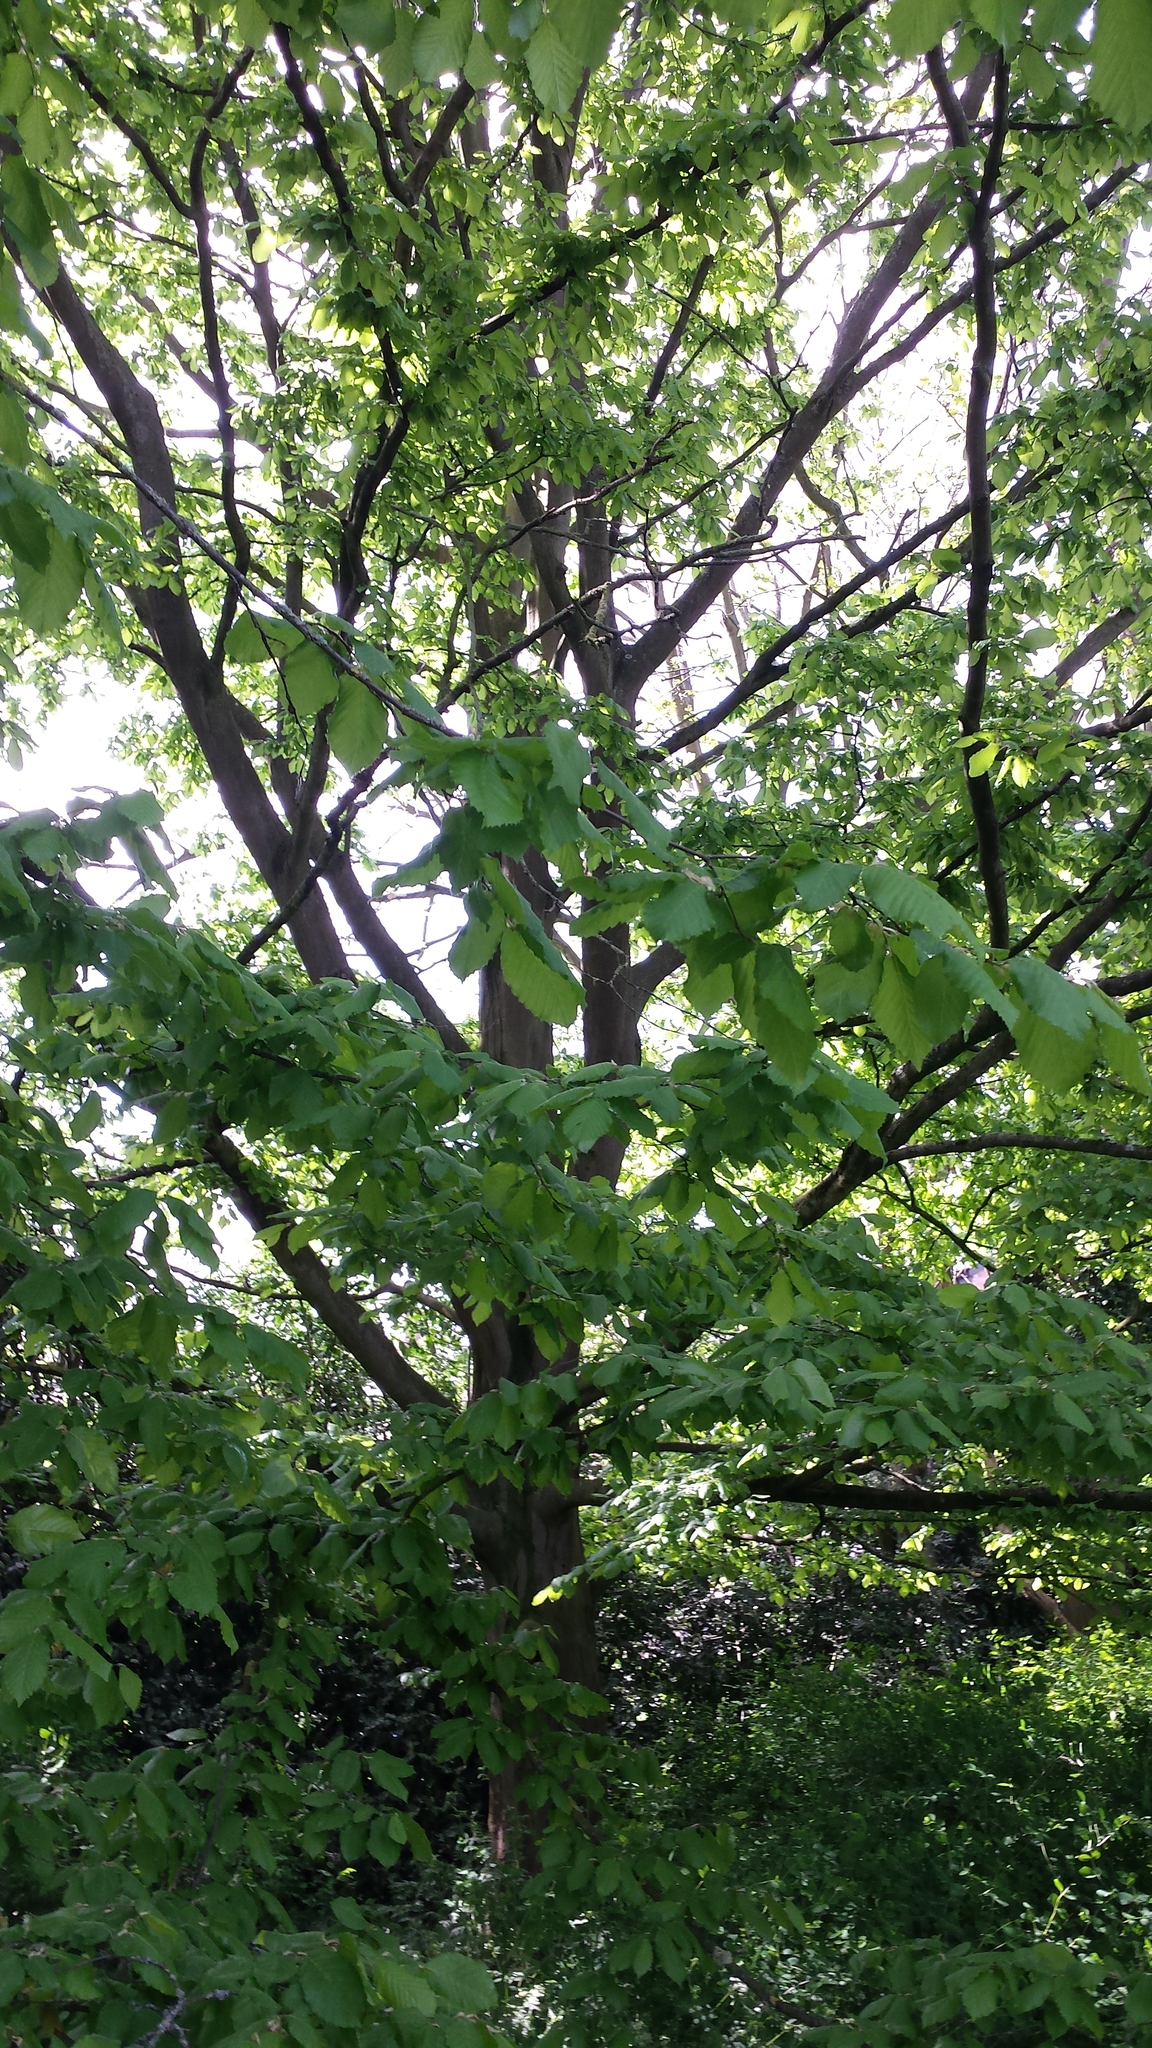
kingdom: Plantae
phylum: Tracheophyta
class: Magnoliopsida
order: Fagales
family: Fagaceae
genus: Fagus
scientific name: Fagus sylvatica
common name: Beech
